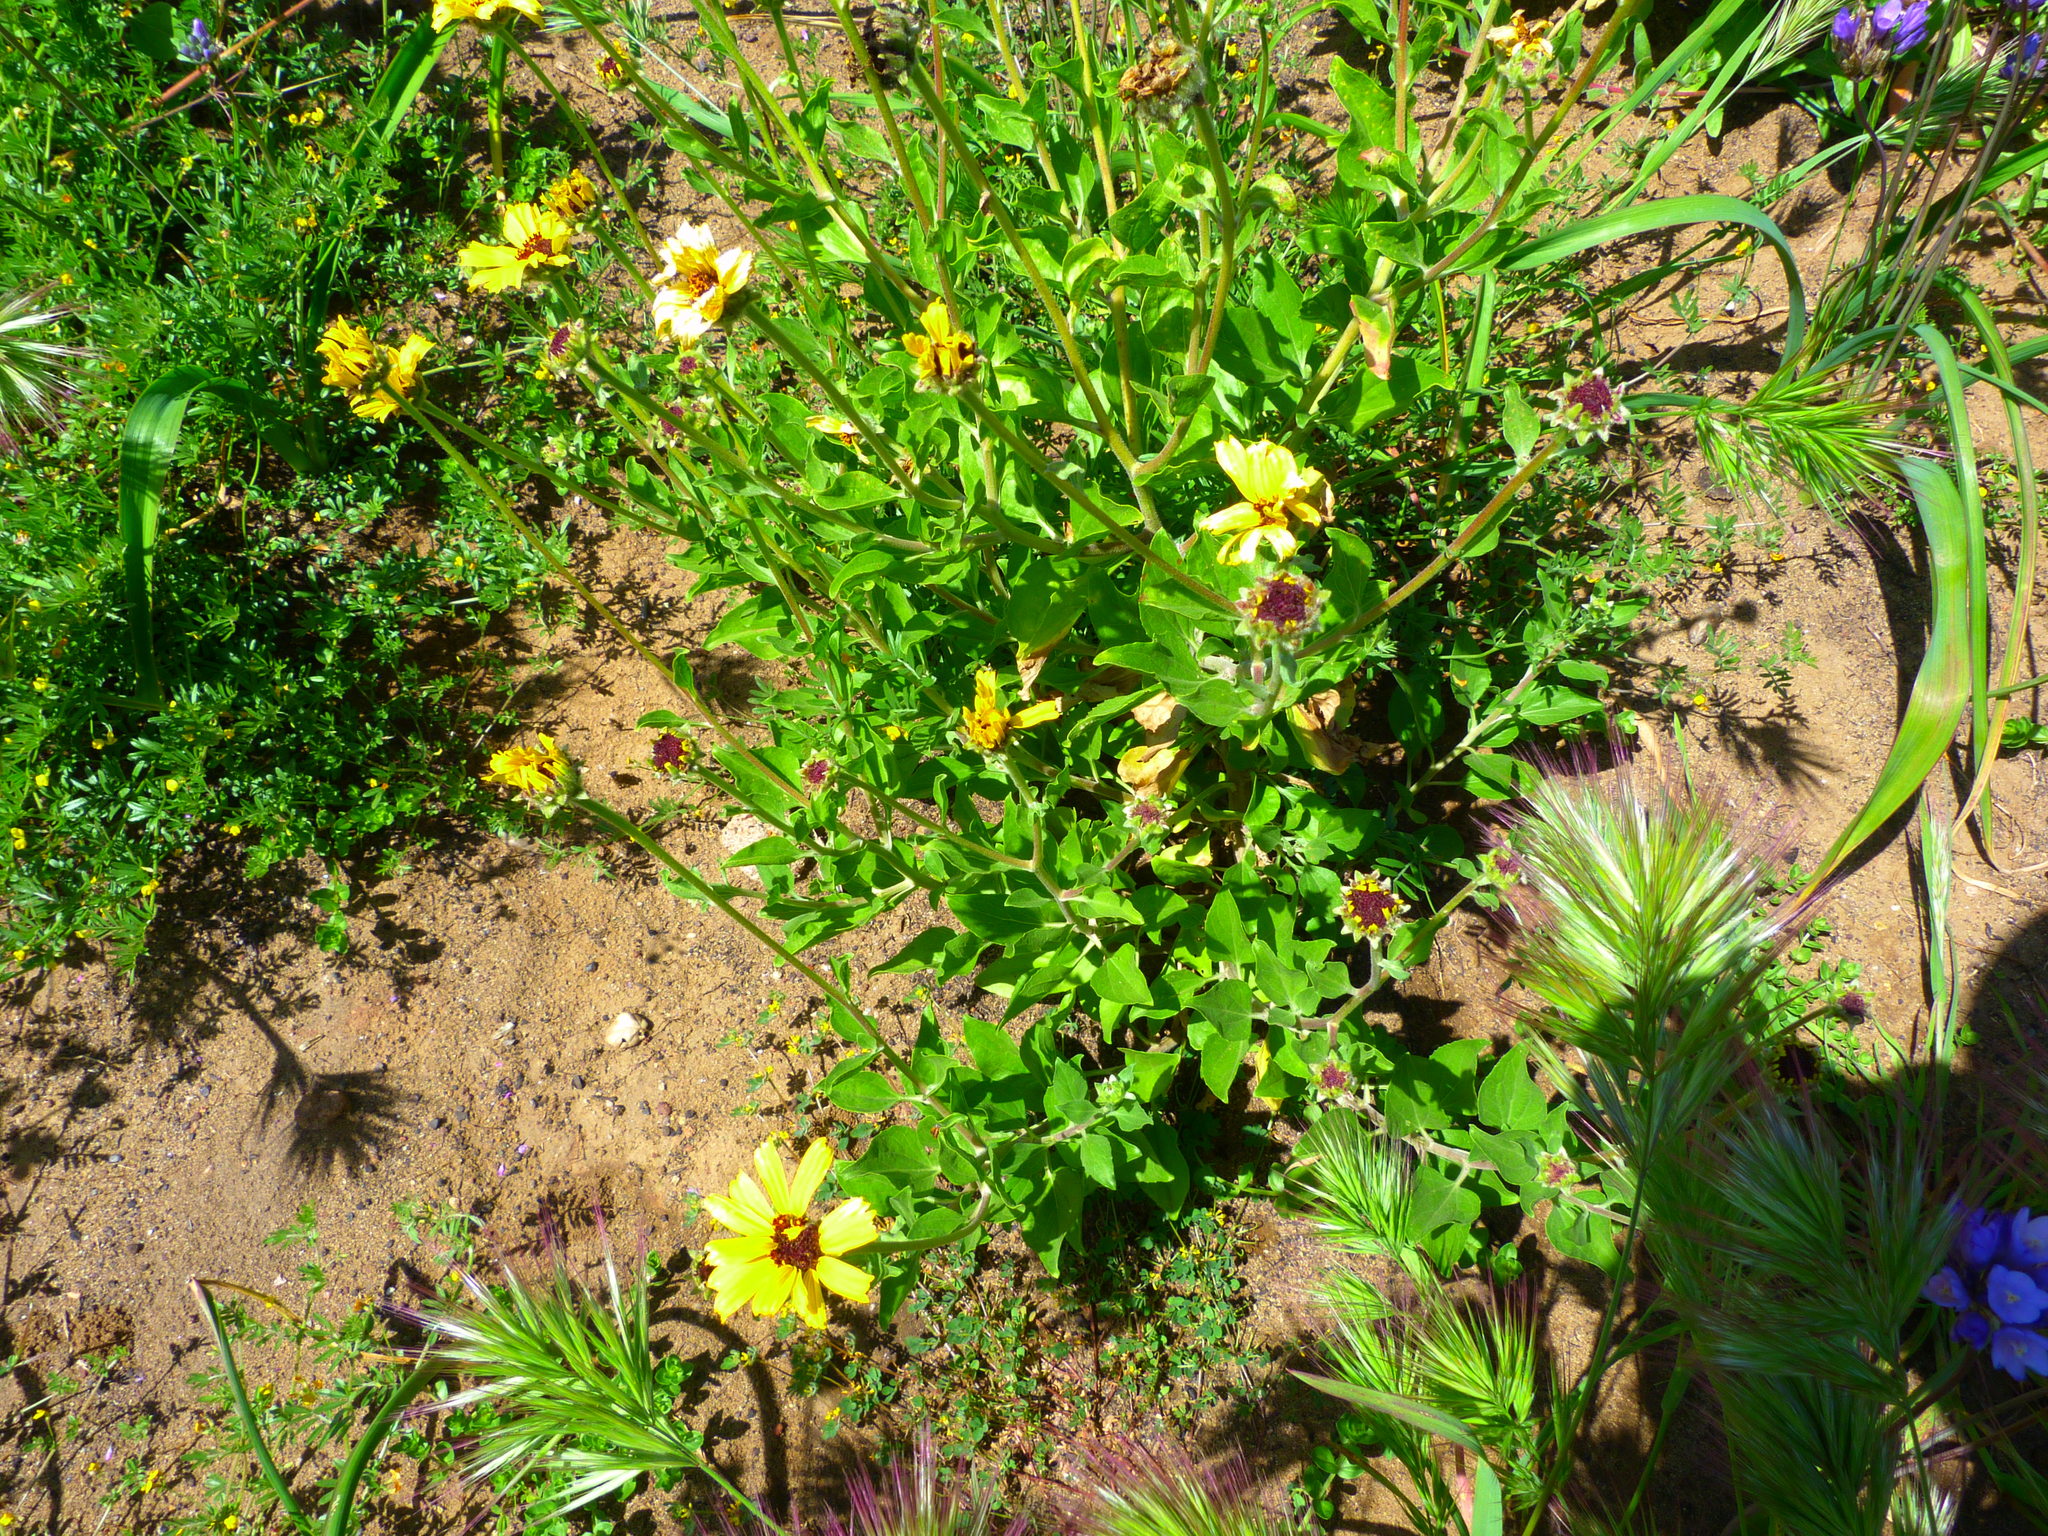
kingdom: Plantae
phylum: Tracheophyta
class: Magnoliopsida
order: Asterales
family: Asteraceae
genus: Encelia
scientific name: Encelia californica
